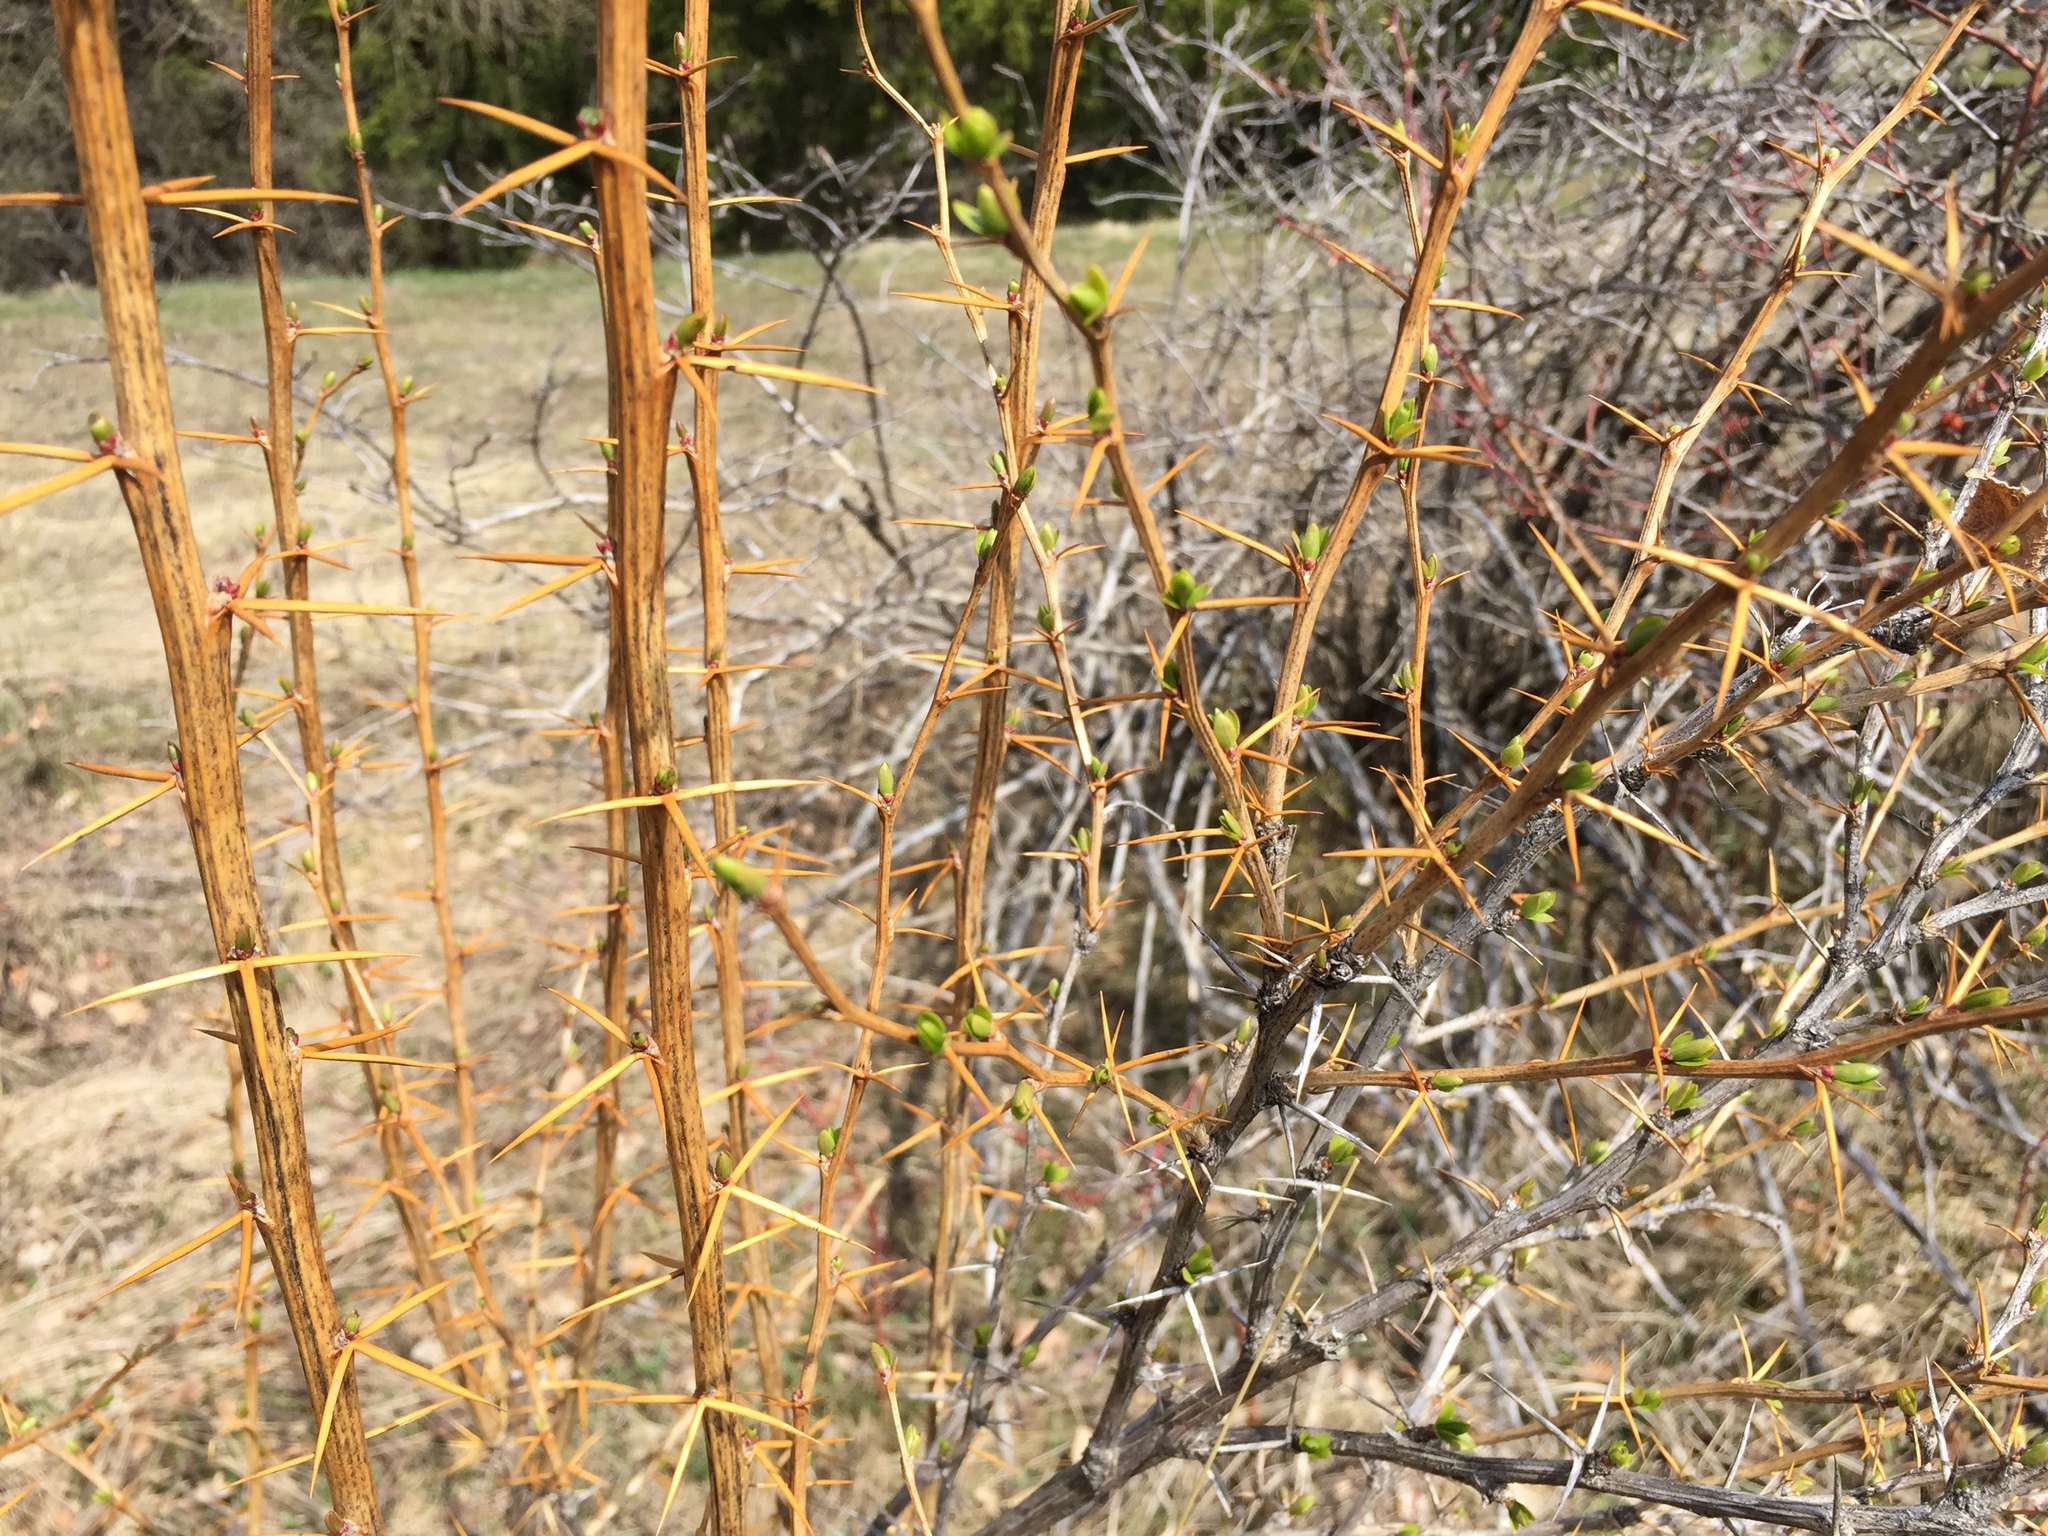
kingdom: Plantae
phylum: Tracheophyta
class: Magnoliopsida
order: Ranunculales
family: Berberidaceae
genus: Berberis
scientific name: Berberis vulgaris
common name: Barberry
